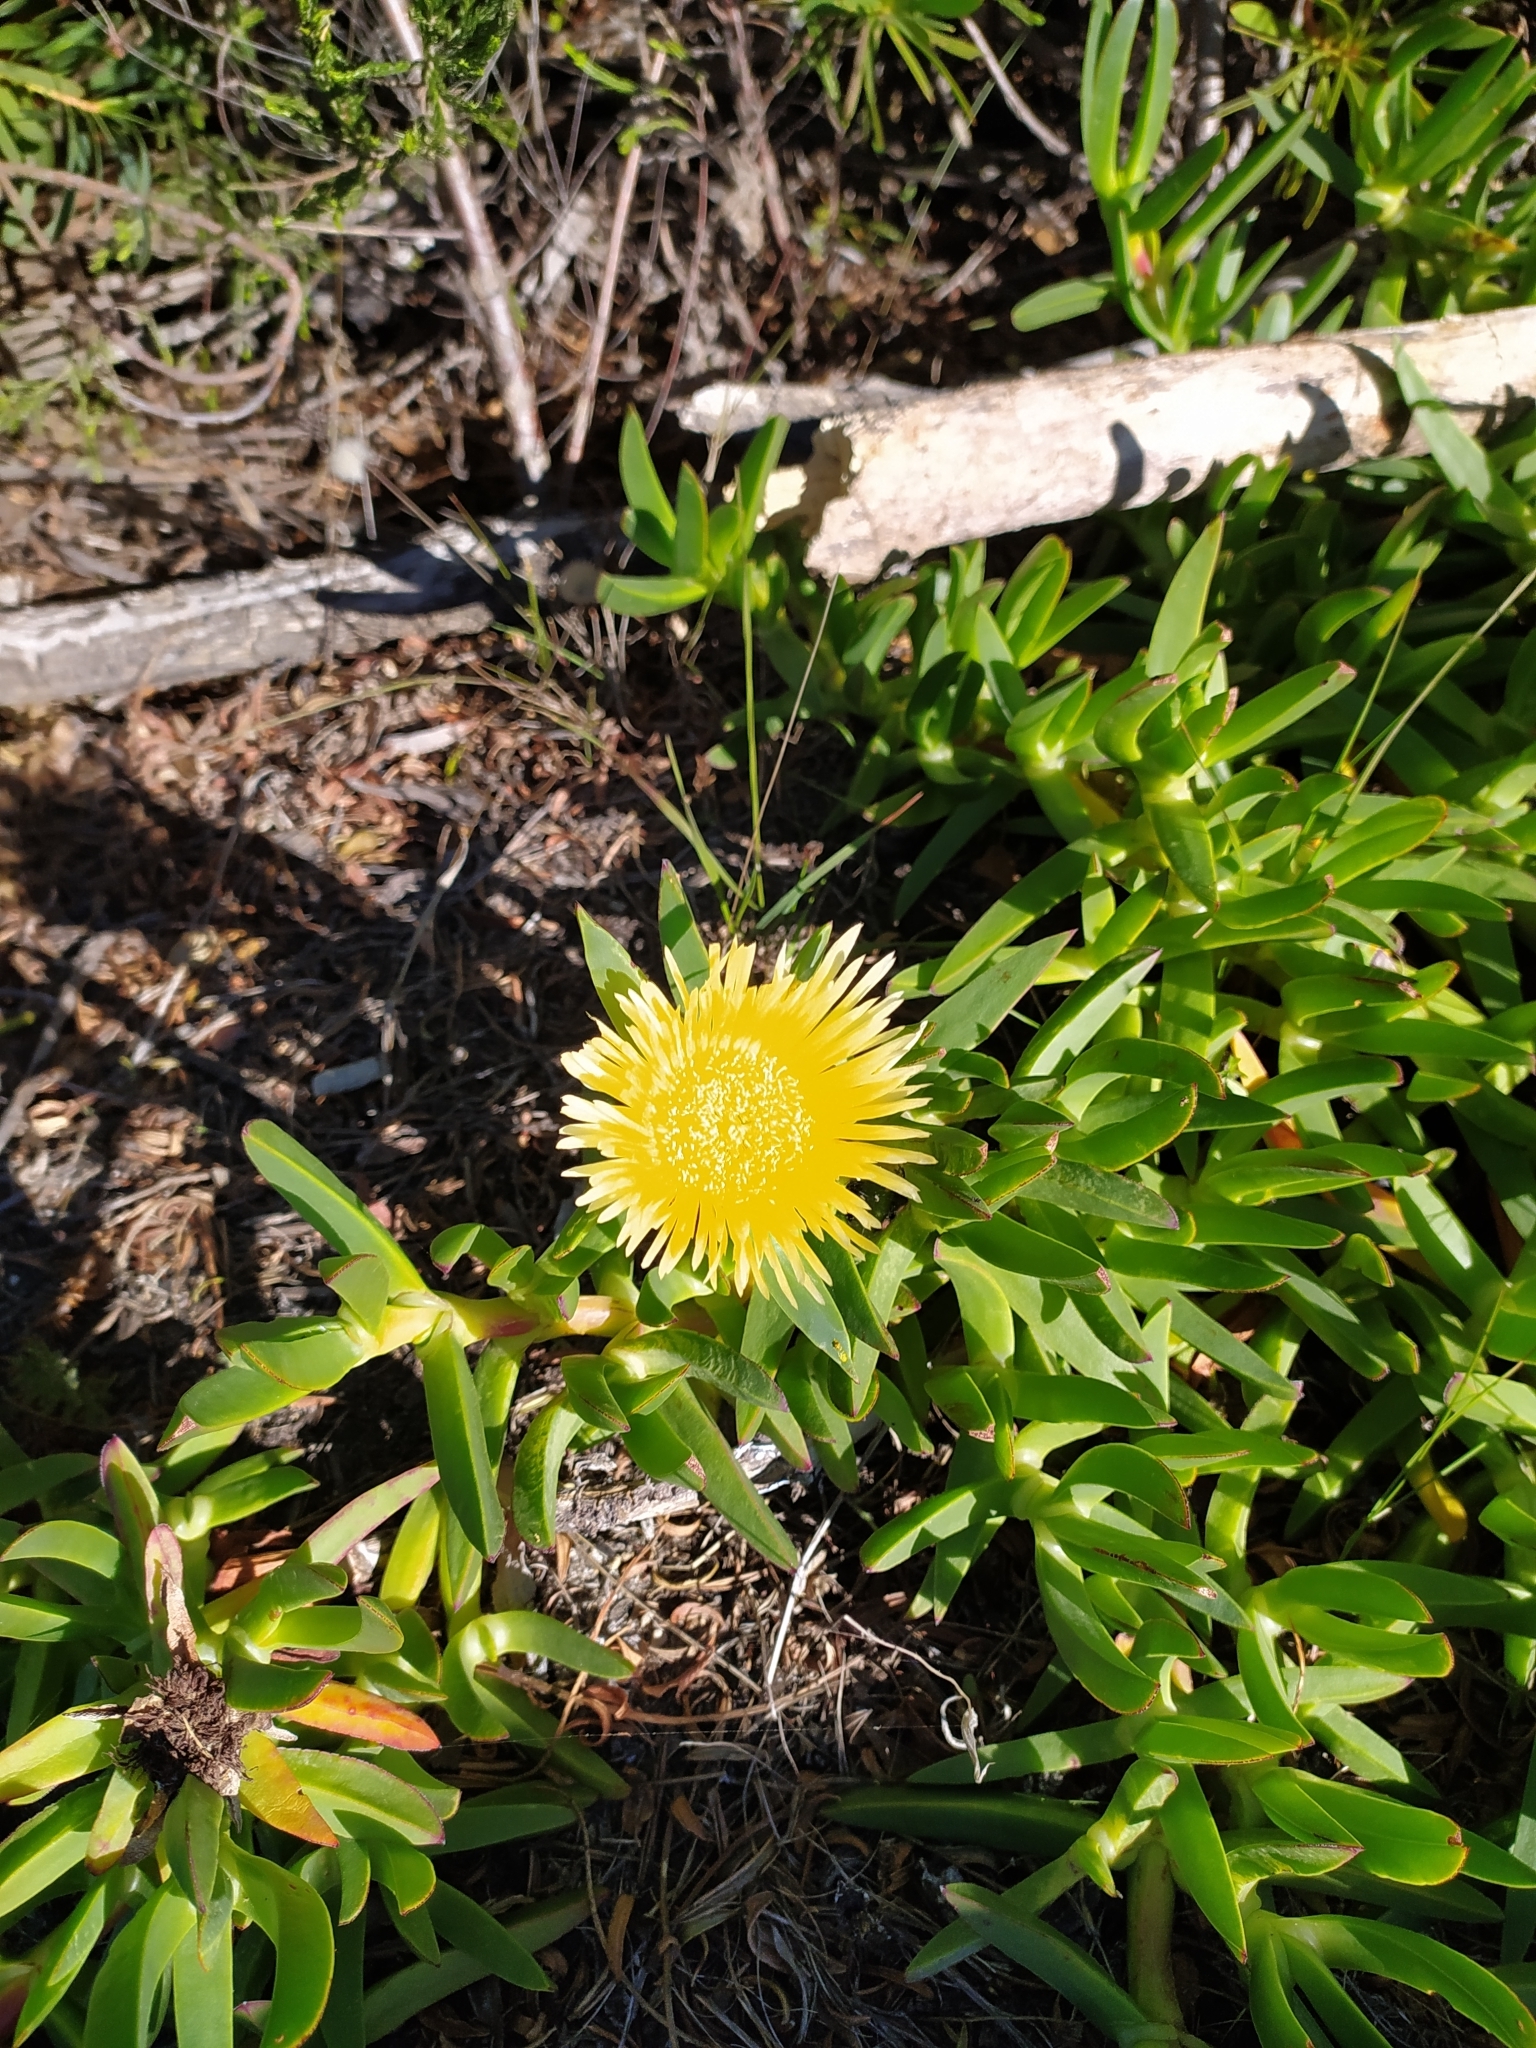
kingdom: Plantae
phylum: Tracheophyta
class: Magnoliopsida
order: Caryophyllales
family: Aizoaceae
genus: Carpobrotus
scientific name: Carpobrotus edulis
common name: Hottentot-fig
